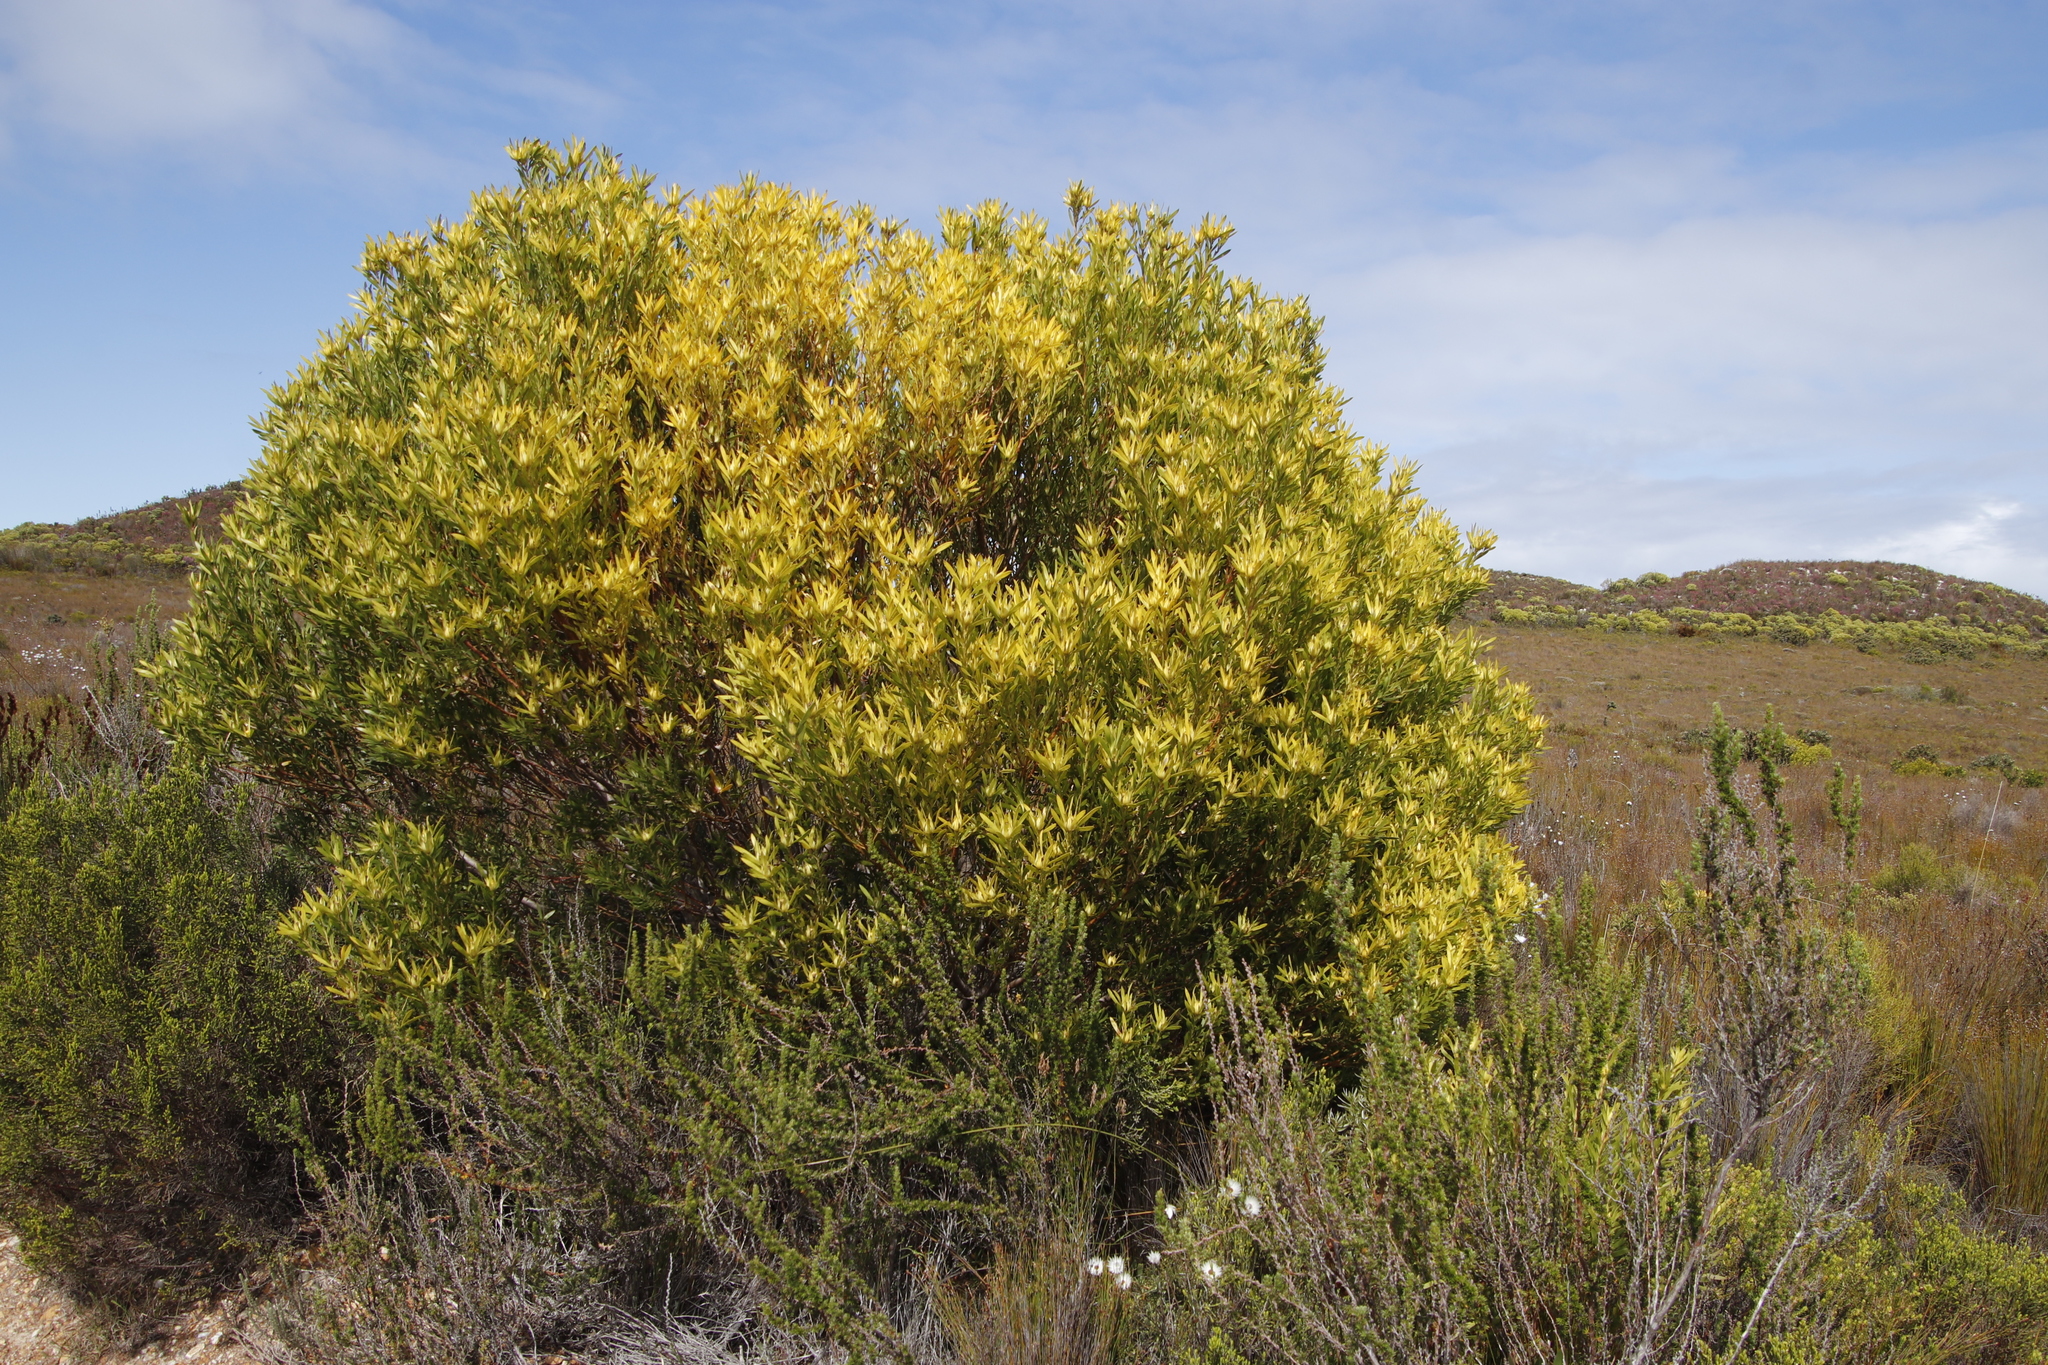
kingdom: Plantae
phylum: Tracheophyta
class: Magnoliopsida
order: Proteales
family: Proteaceae
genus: Leucadendron
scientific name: Leucadendron coniferum
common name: Dune conebush
